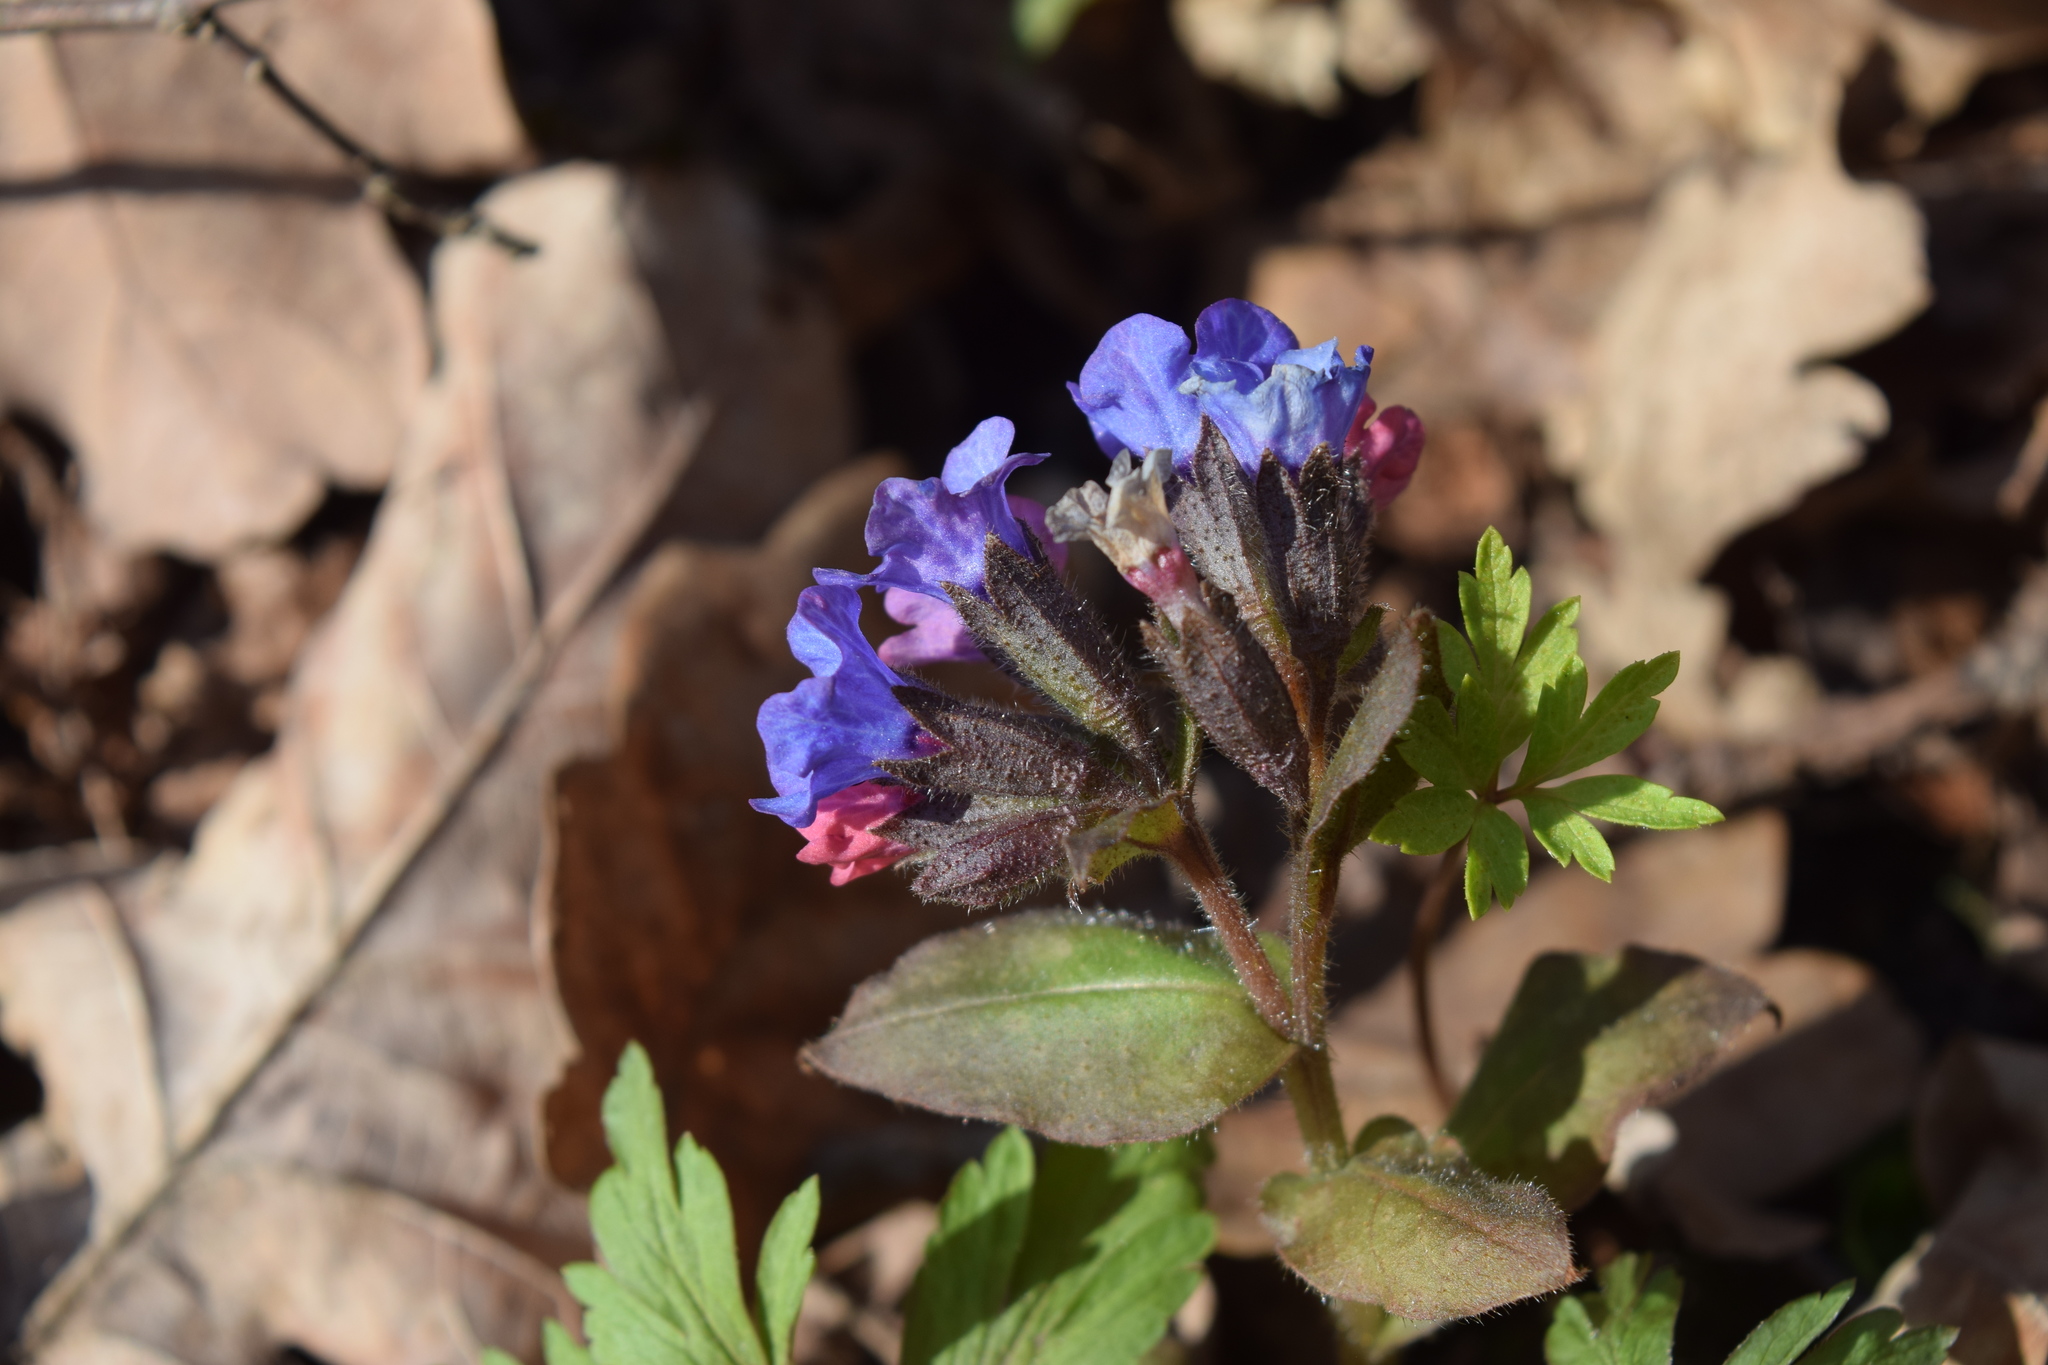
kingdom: Plantae
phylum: Tracheophyta
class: Magnoliopsida
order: Boraginales
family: Boraginaceae
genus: Pulmonaria
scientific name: Pulmonaria obscura
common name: Suffolk lungwort
